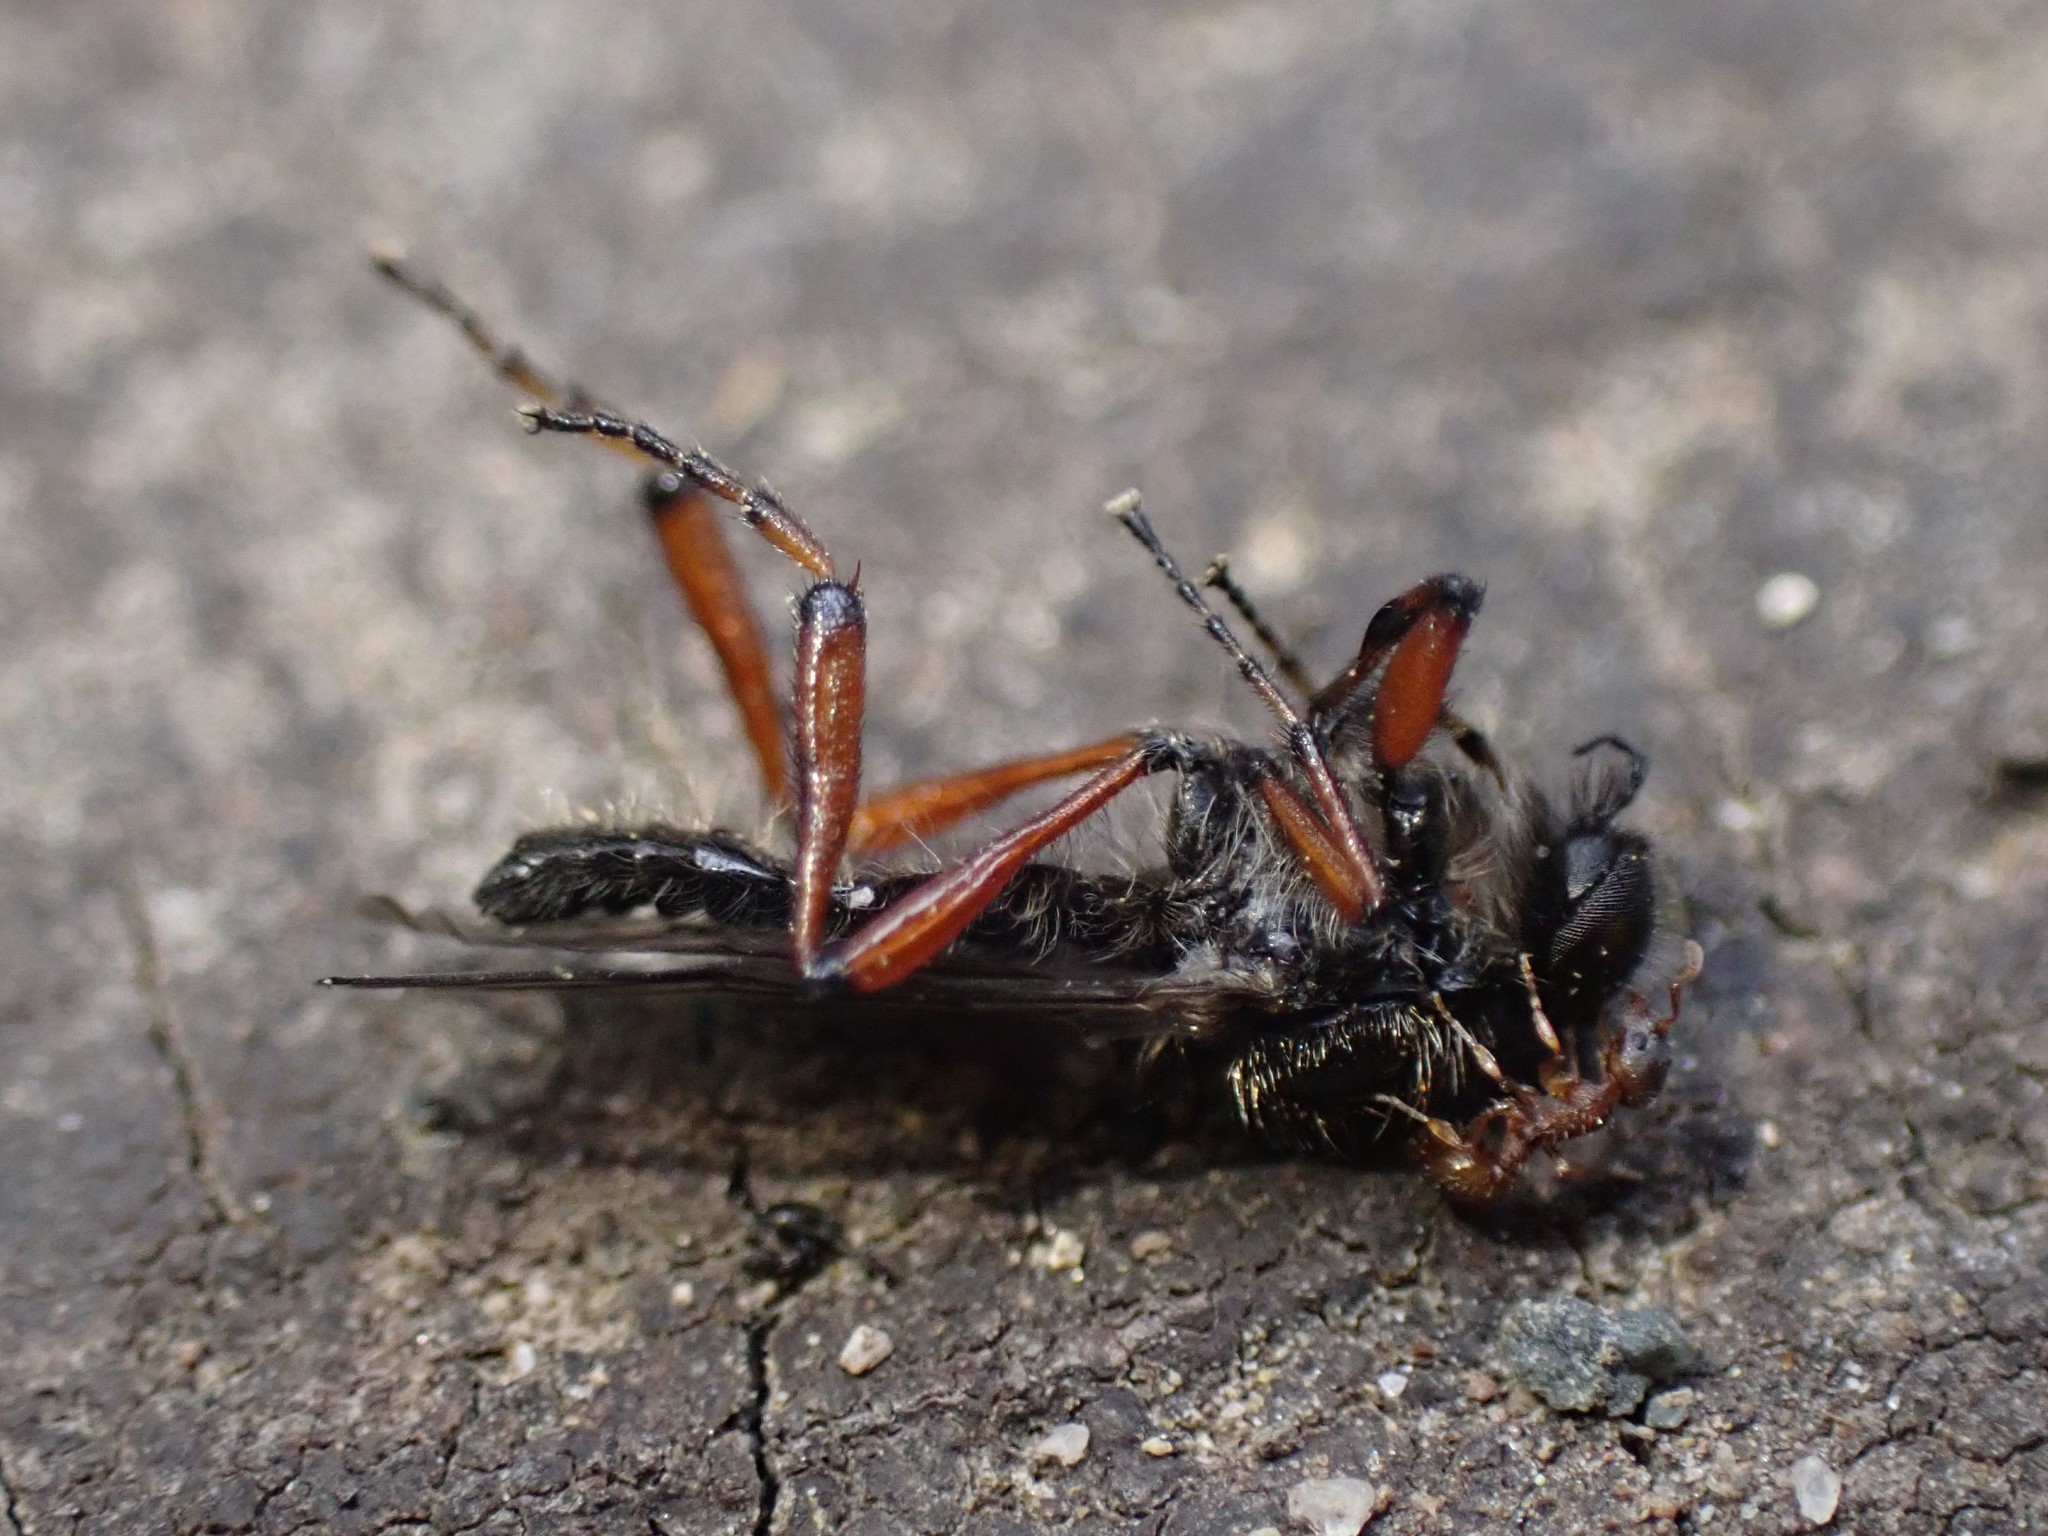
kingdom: Animalia
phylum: Arthropoda
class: Insecta
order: Diptera
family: Bibionidae
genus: Bibio
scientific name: Bibio
